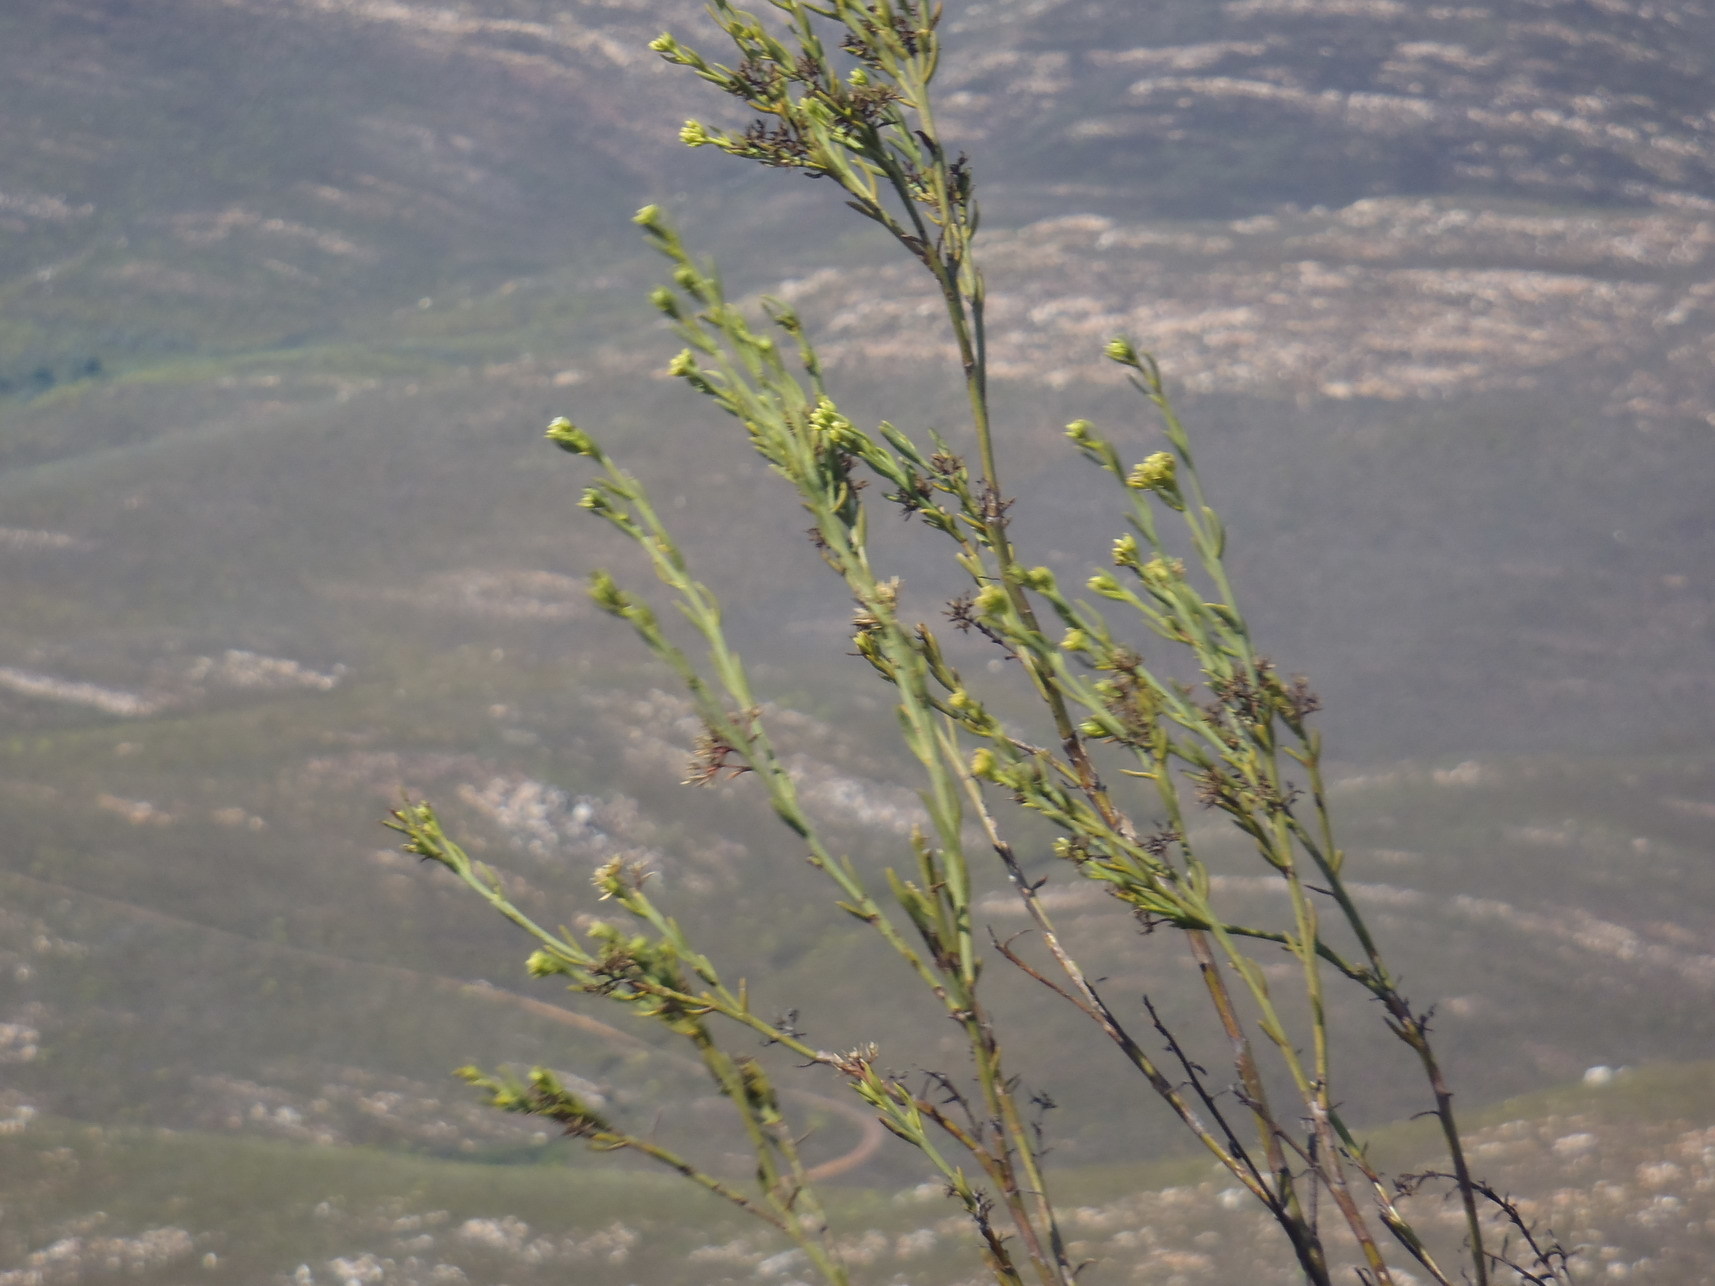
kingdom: Plantae
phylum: Tracheophyta
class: Magnoliopsida
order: Santalales
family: Thesiaceae
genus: Thesium
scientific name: Thesium strictum
